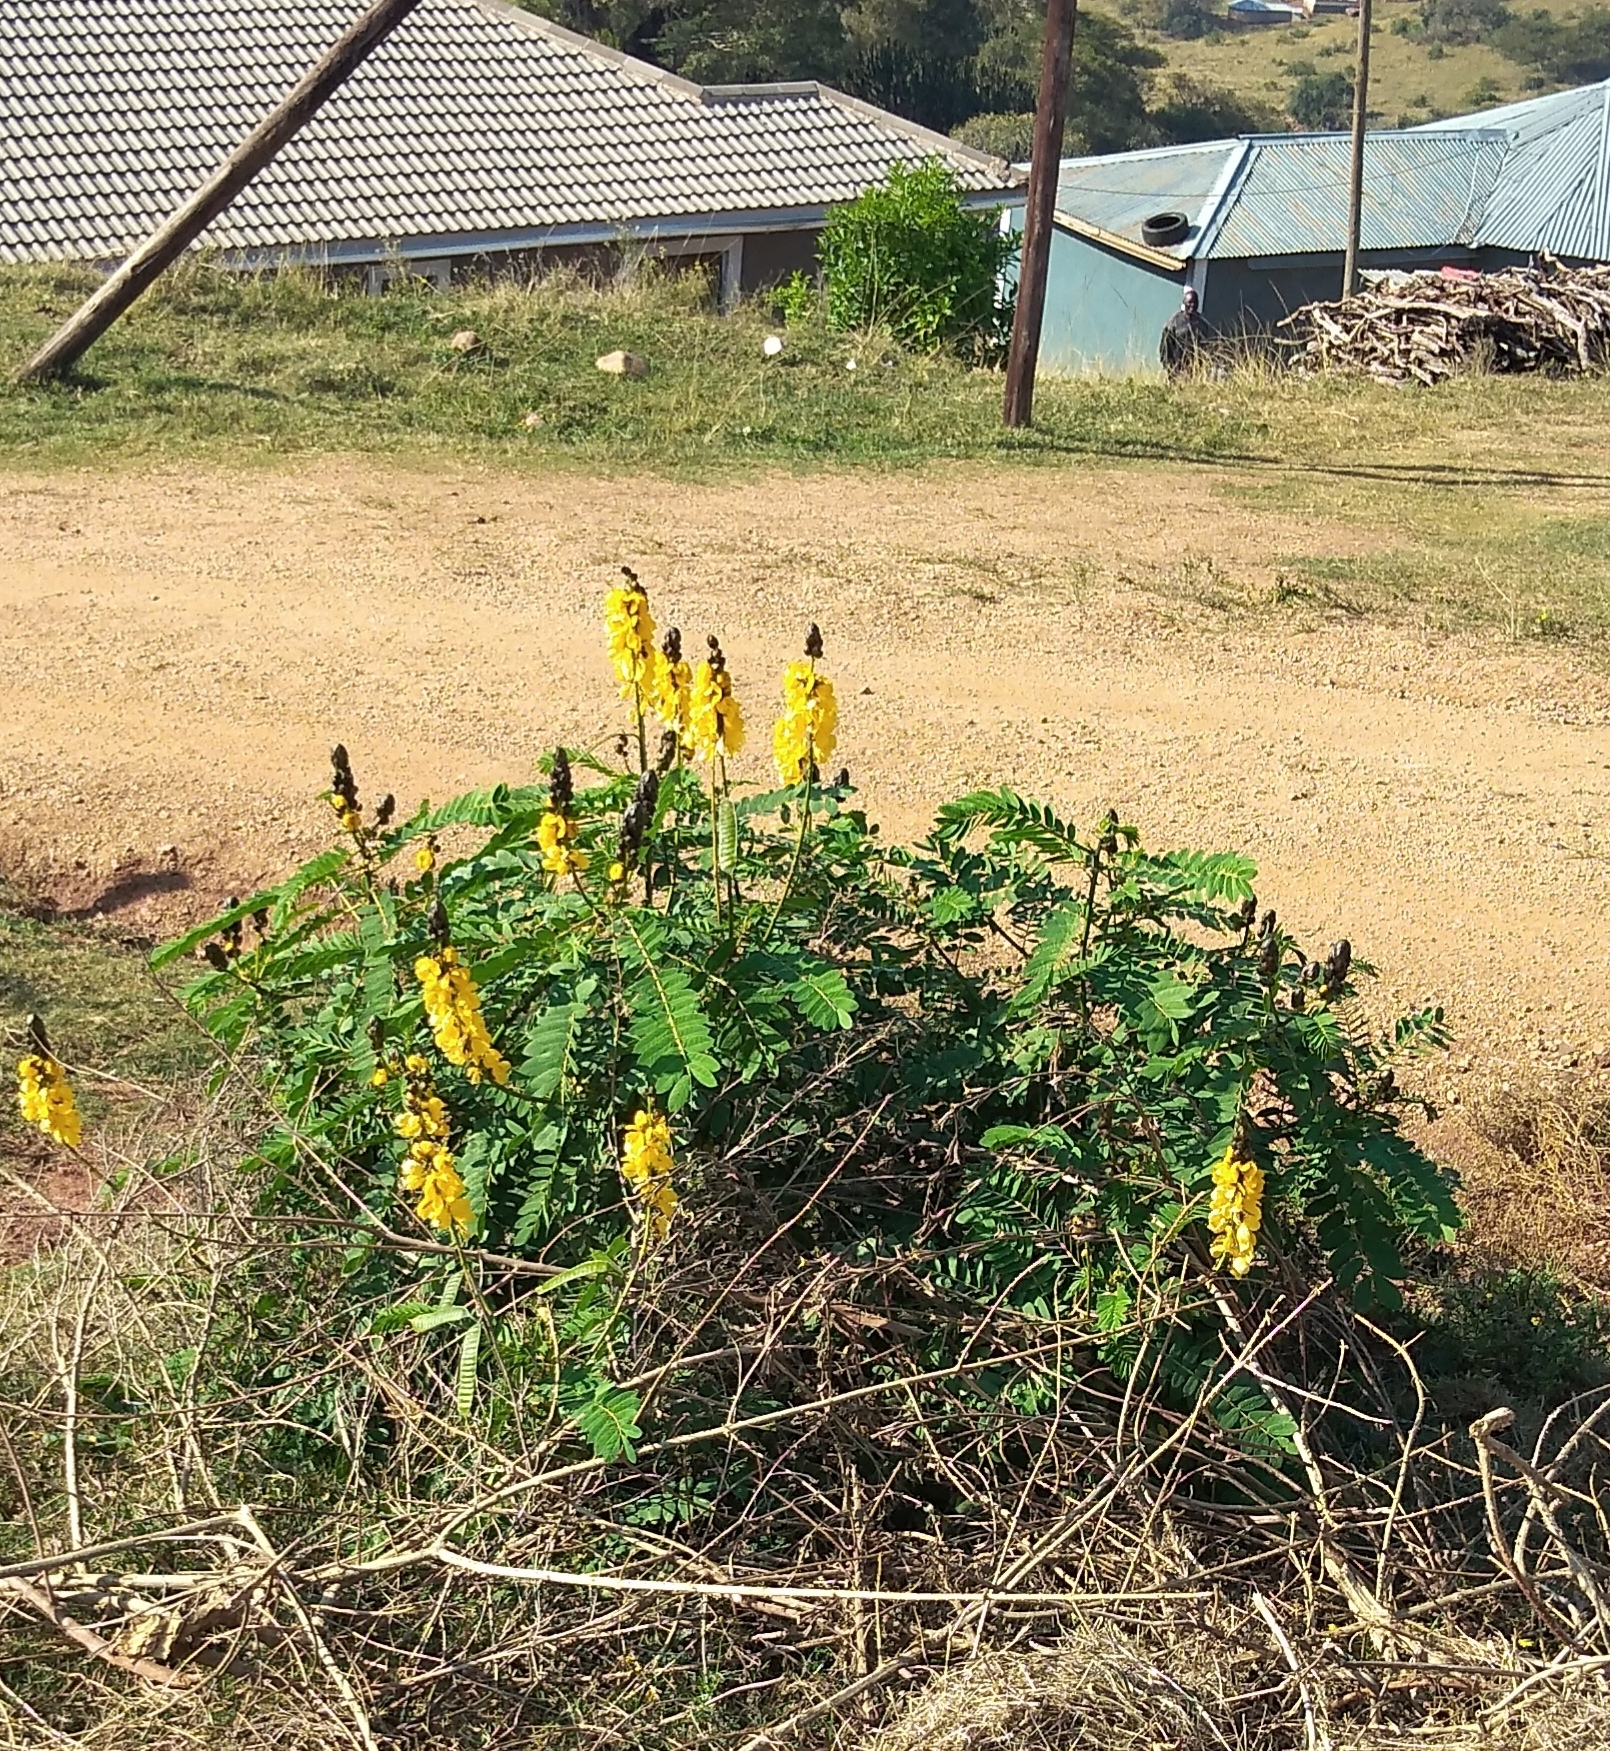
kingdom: Plantae
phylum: Tracheophyta
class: Magnoliopsida
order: Fabales
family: Fabaceae
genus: Senna
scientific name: Senna didymobotrya
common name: African senna
